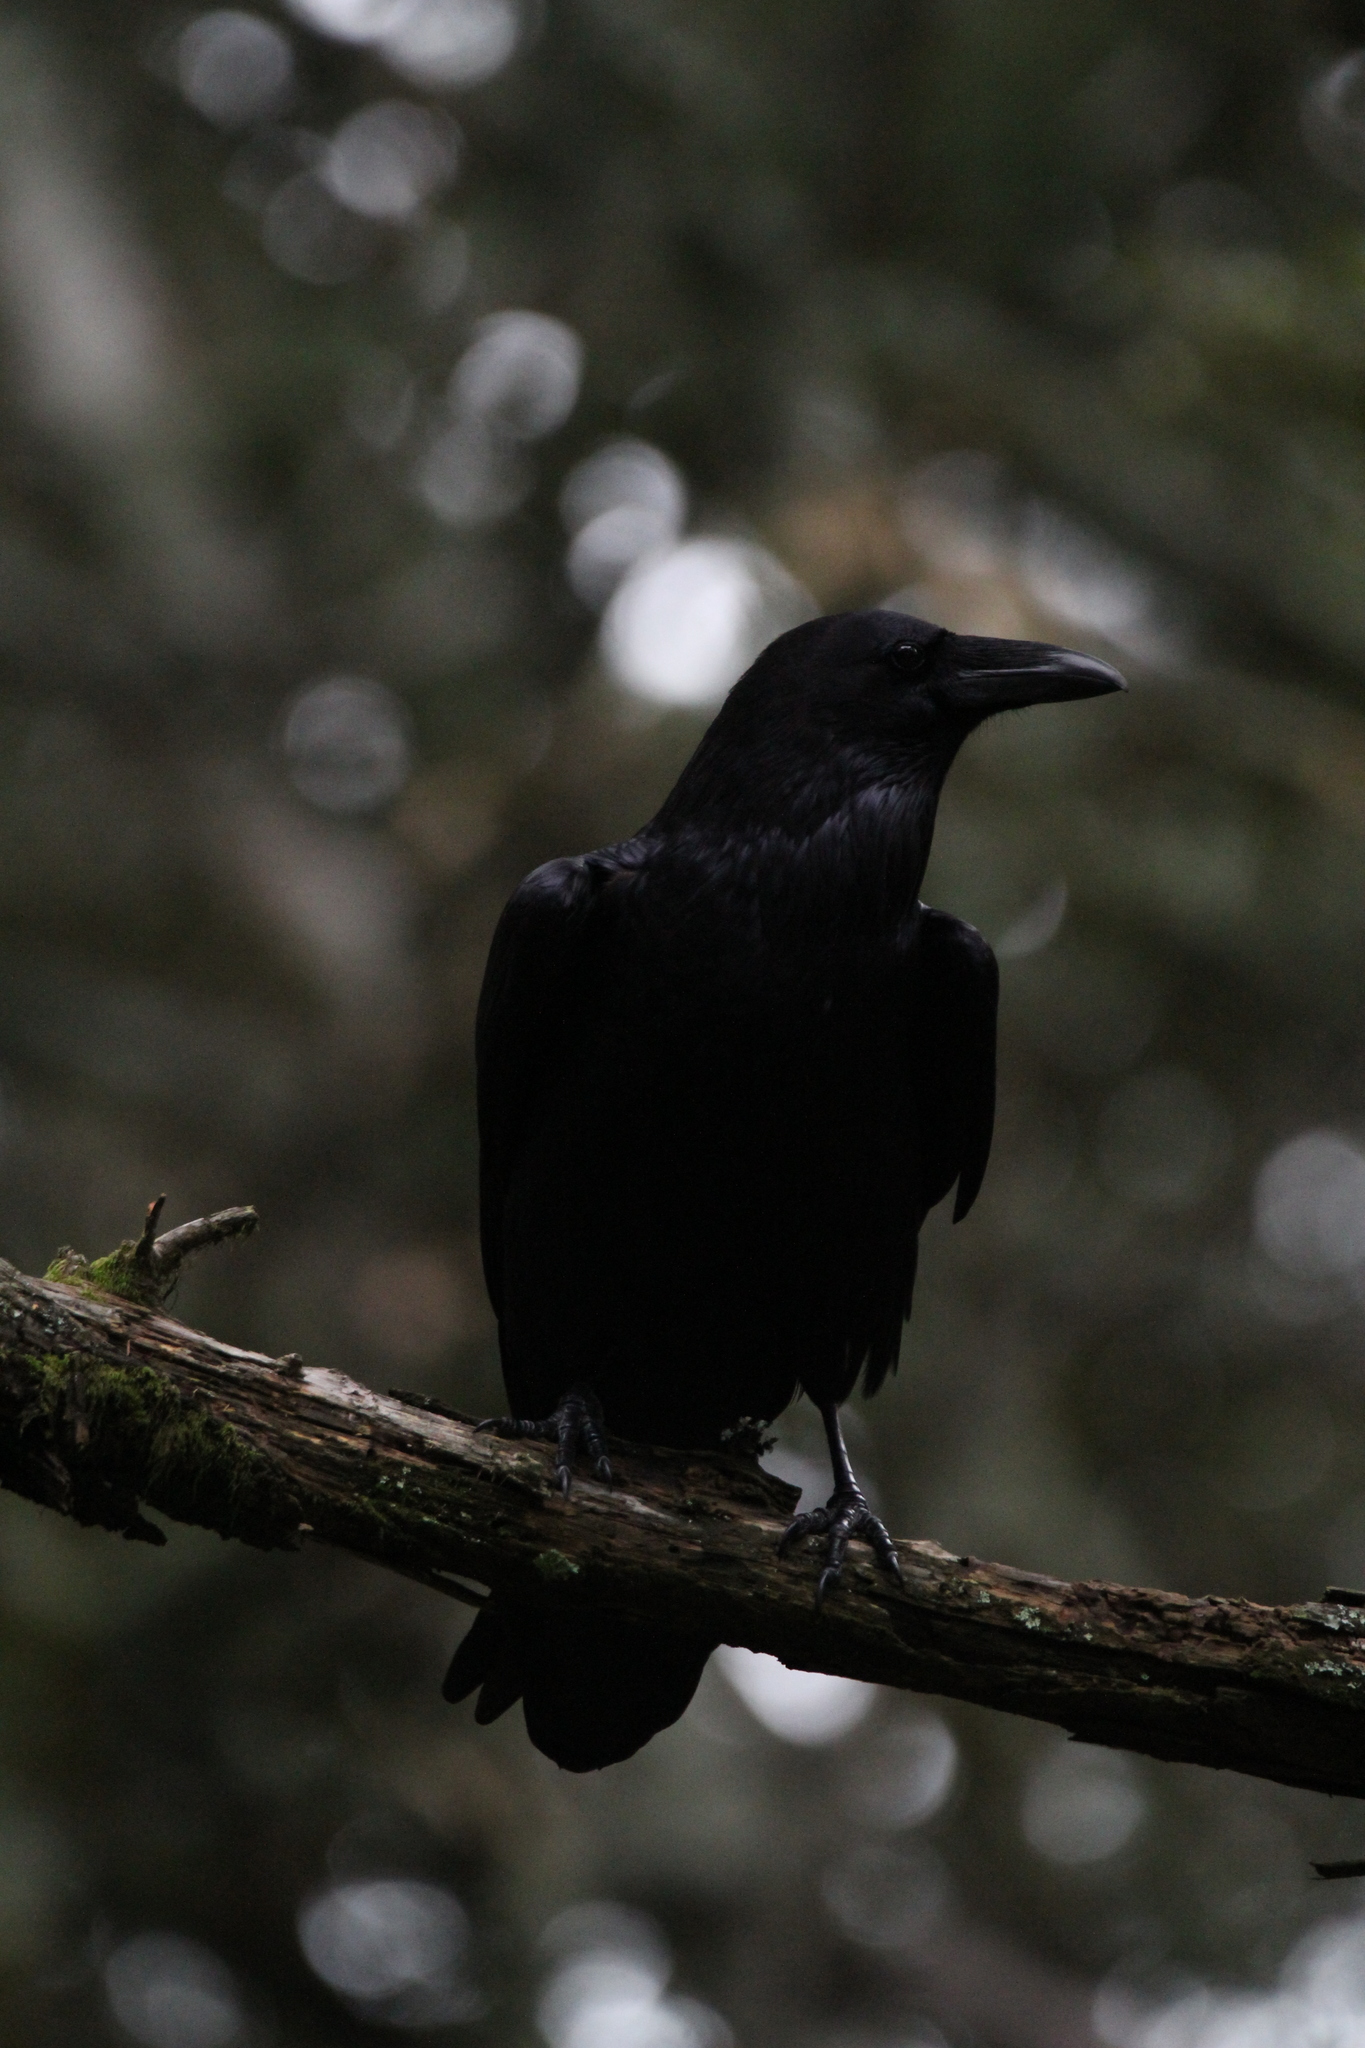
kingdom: Animalia
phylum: Chordata
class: Aves
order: Passeriformes
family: Corvidae
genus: Corvus
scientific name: Corvus corax
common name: Common raven
